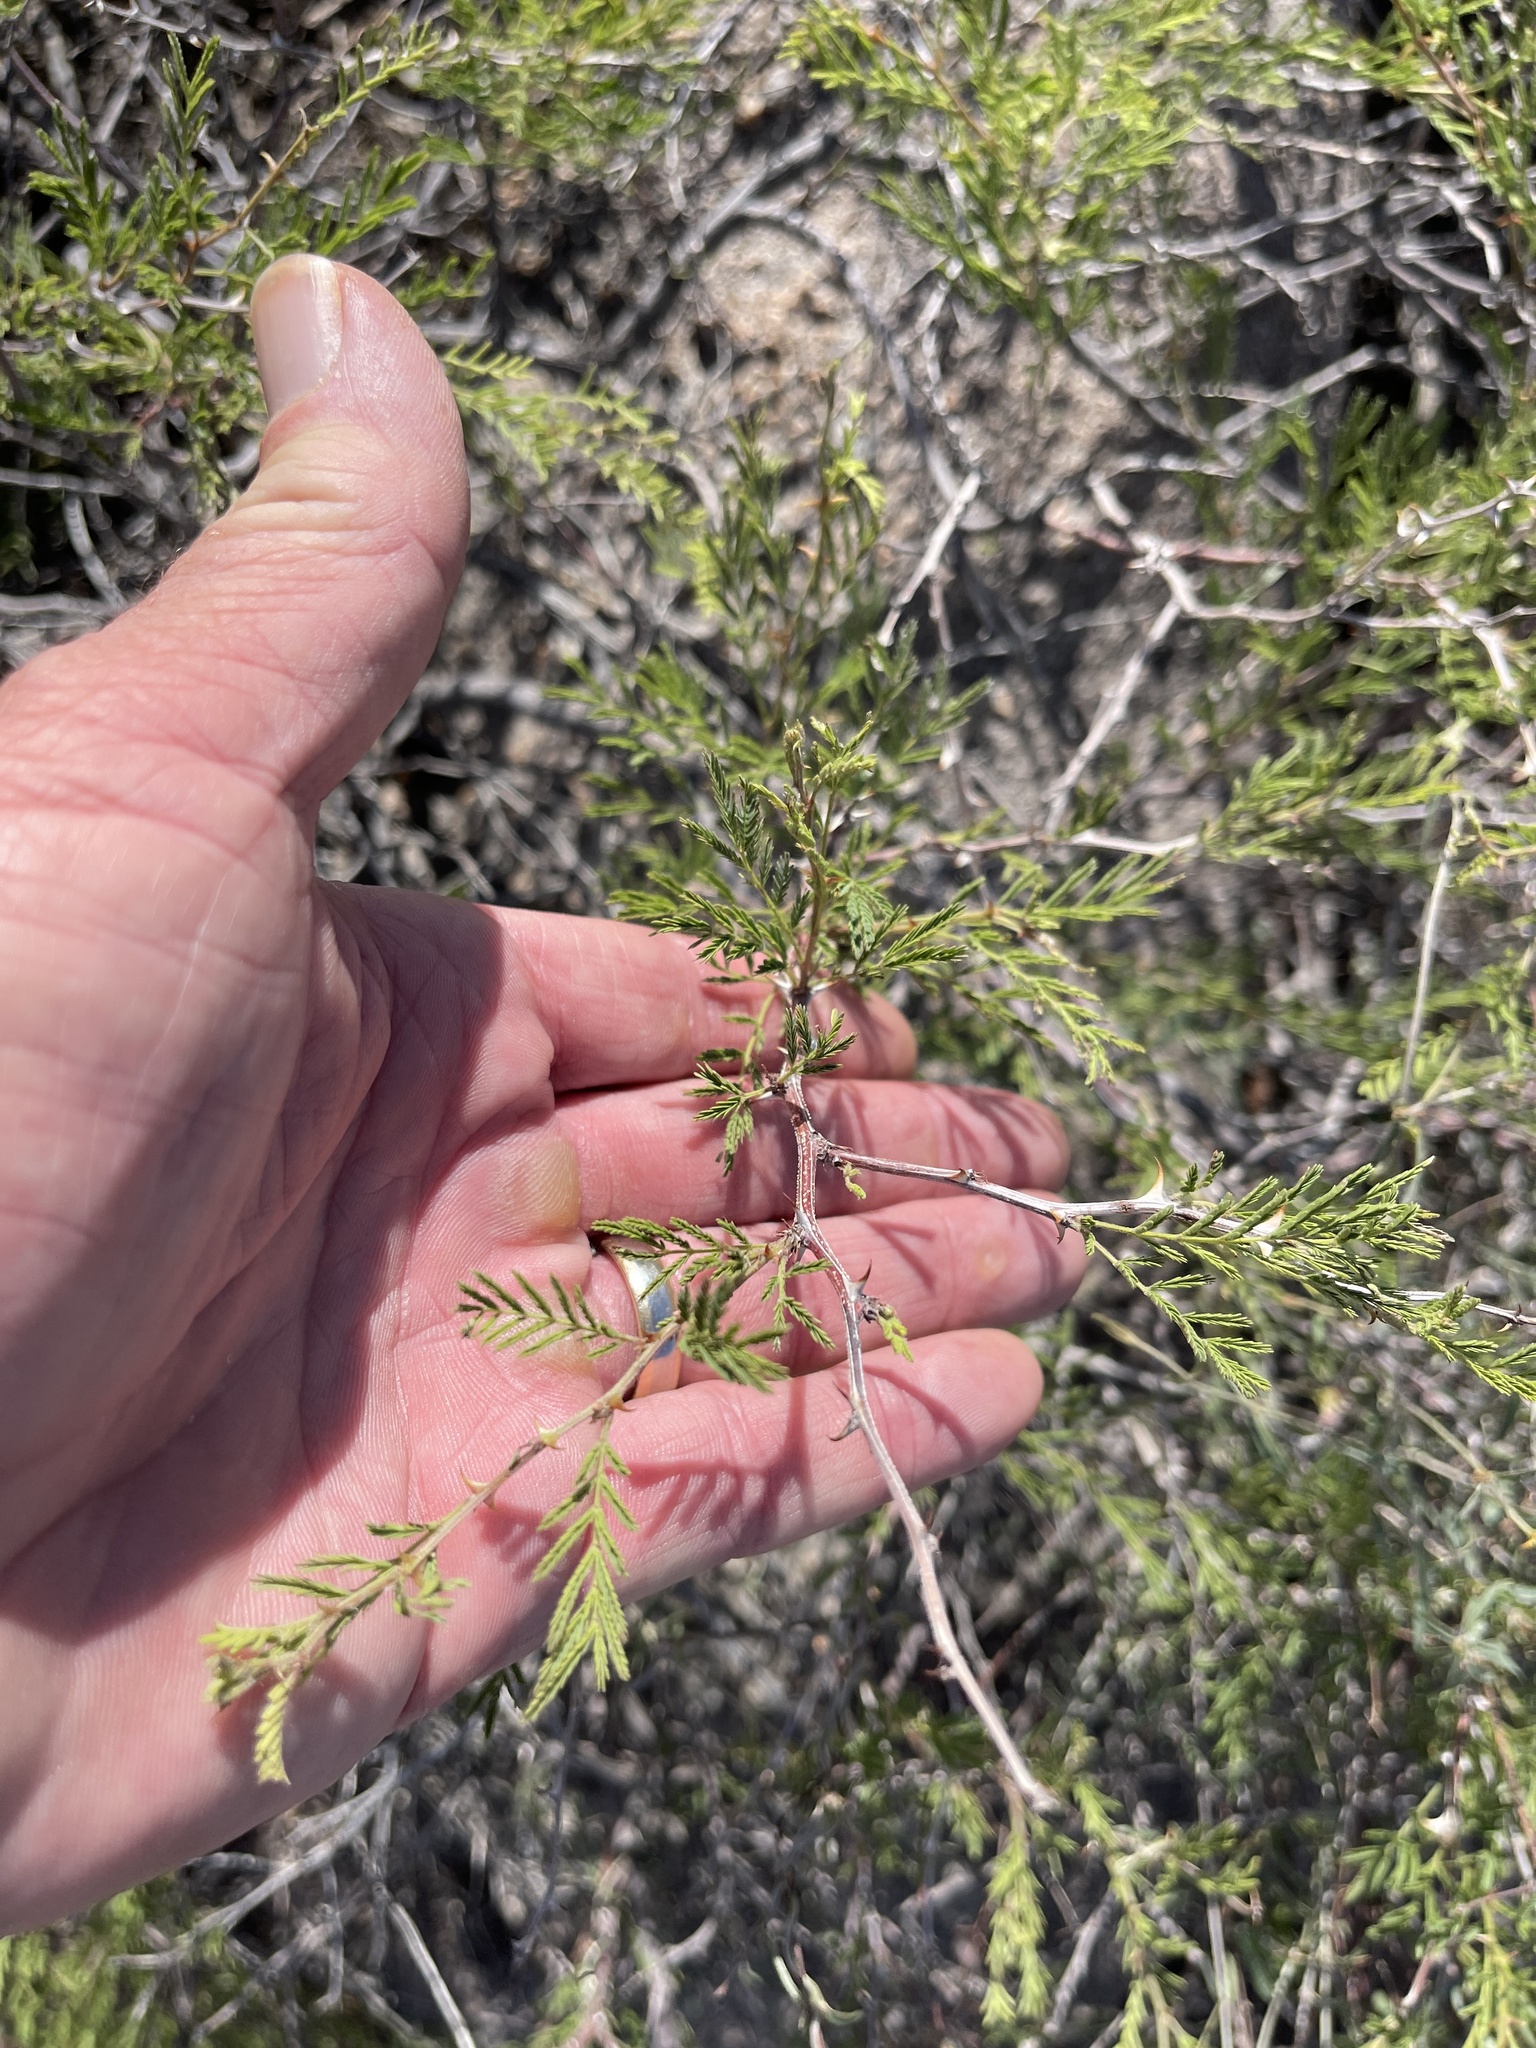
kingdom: Plantae
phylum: Tracheophyta
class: Magnoliopsida
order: Fabales
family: Fabaceae
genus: Vachellia
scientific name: Vachellia constricta
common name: Mescat acacia
